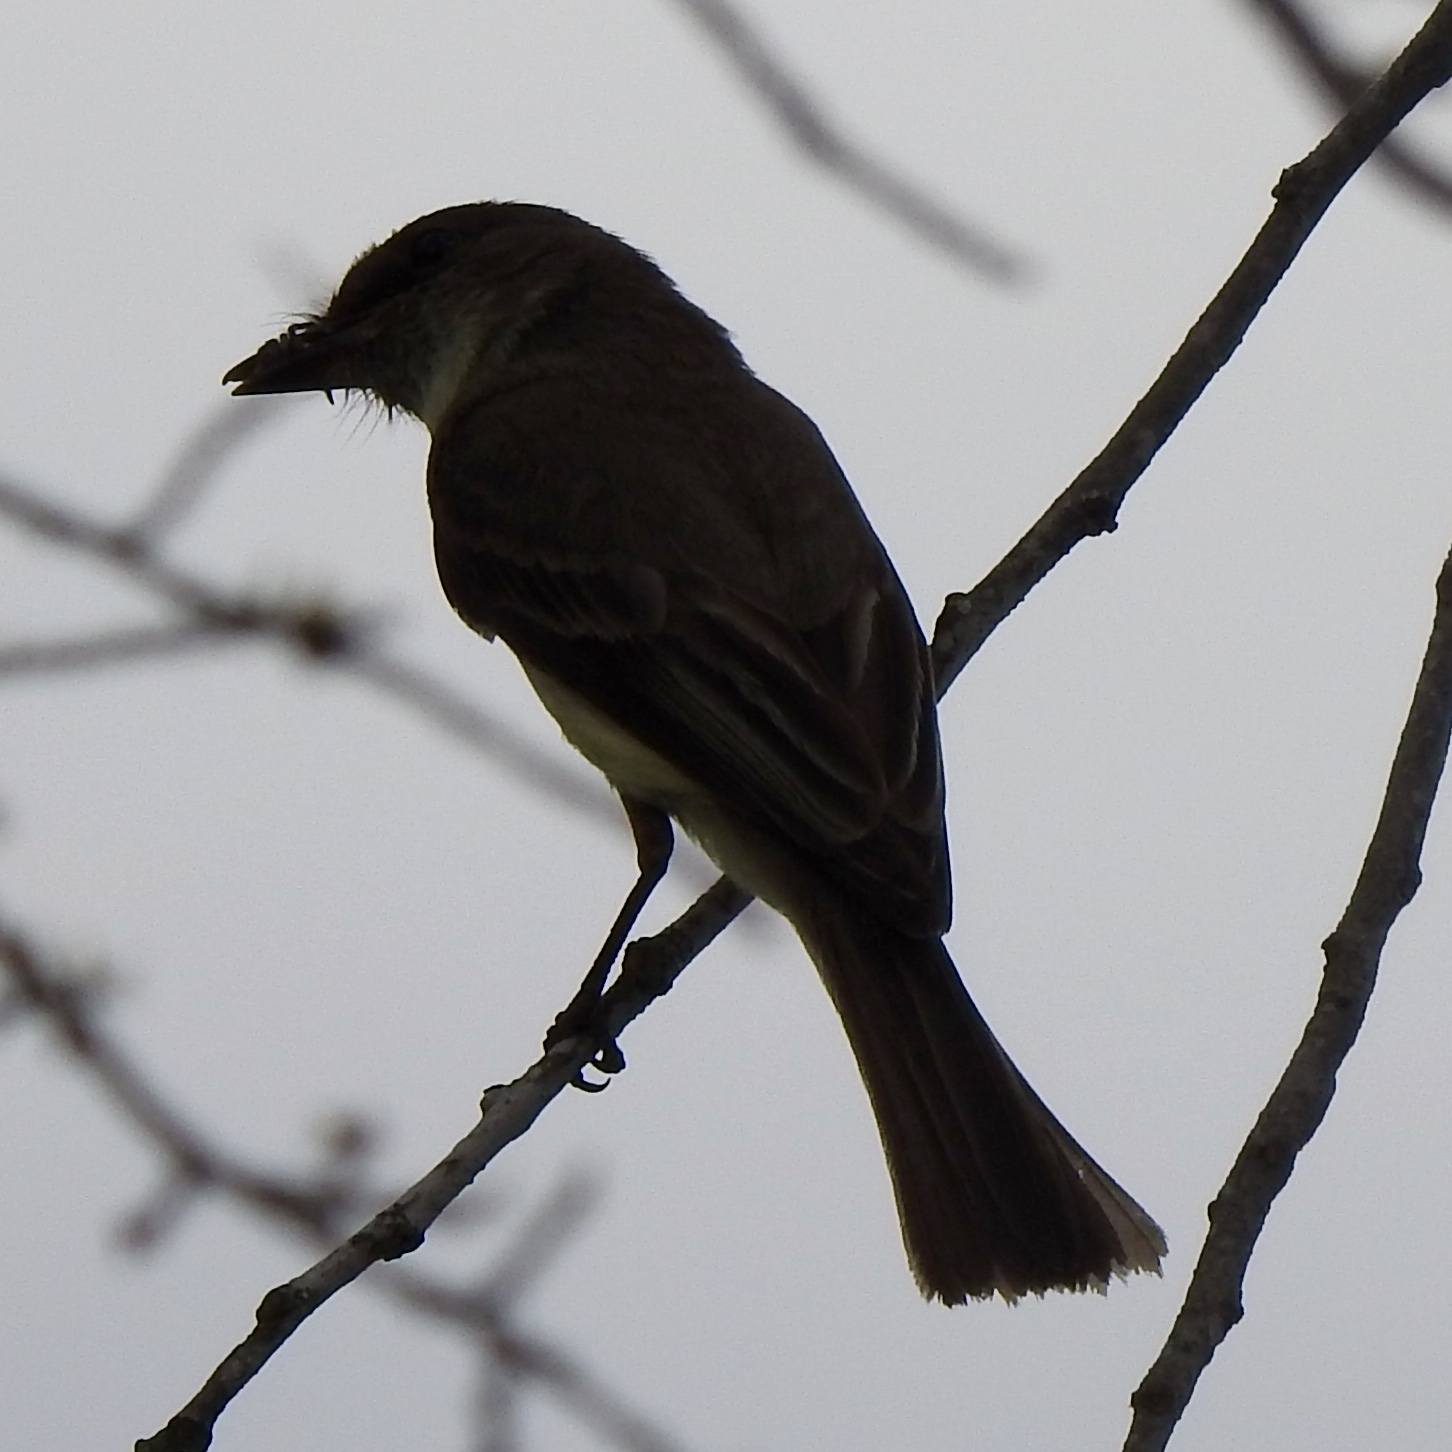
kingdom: Animalia
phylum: Chordata
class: Aves
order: Passeriformes
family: Tyrannidae
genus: Sayornis
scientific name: Sayornis phoebe
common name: Eastern phoebe
